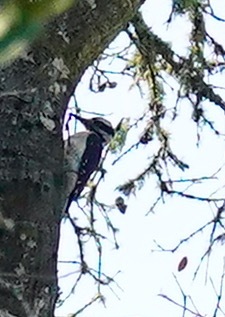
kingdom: Animalia
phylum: Chordata
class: Aves
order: Piciformes
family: Picidae
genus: Leuconotopicus
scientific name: Leuconotopicus villosus
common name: Hairy woodpecker
